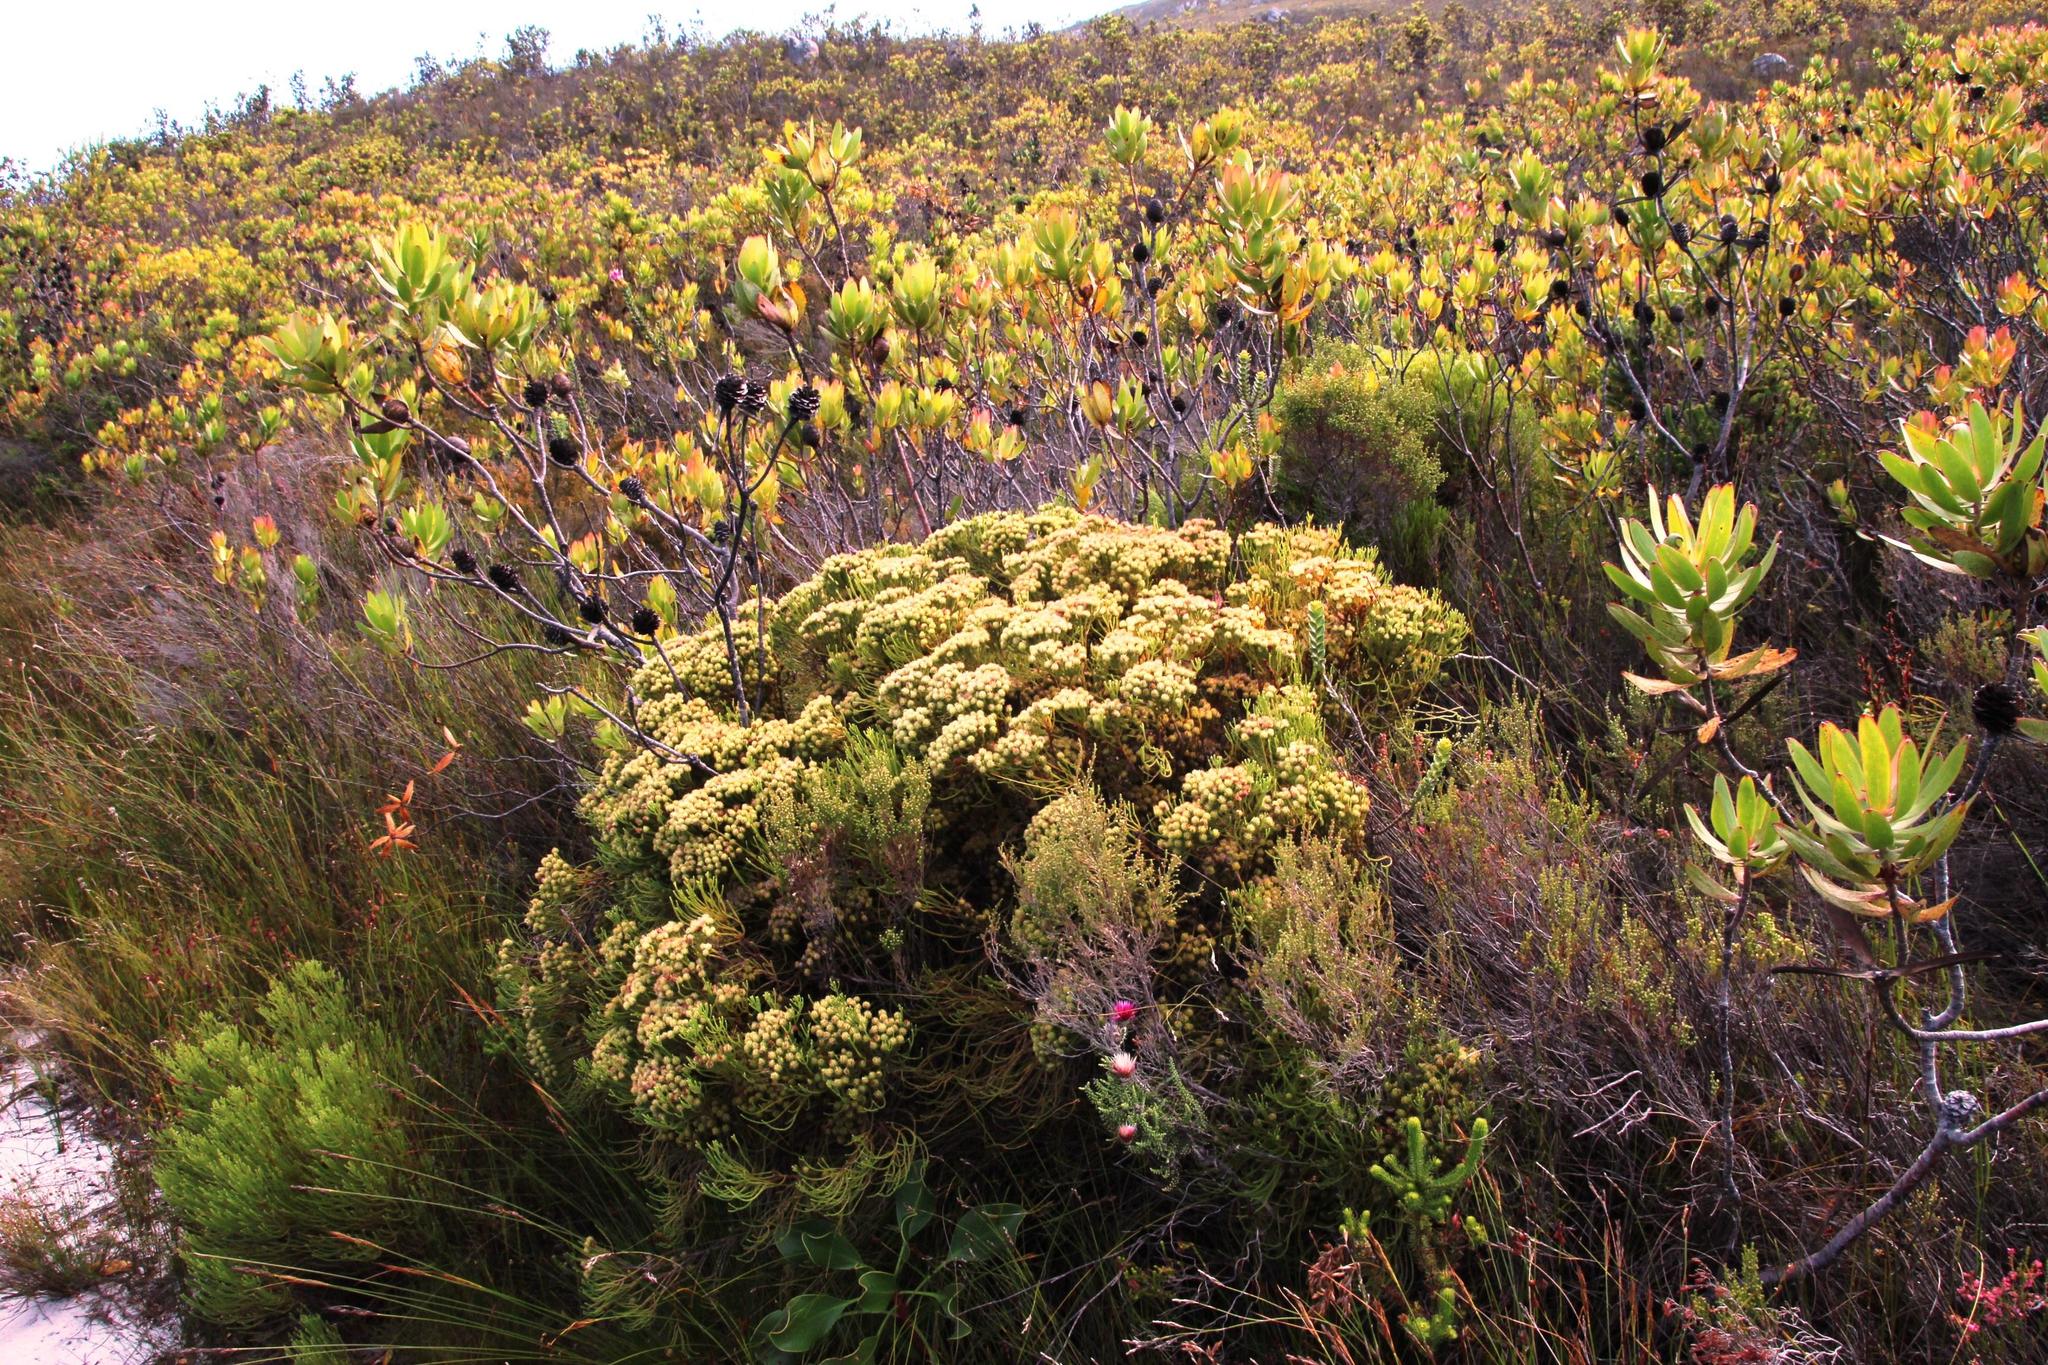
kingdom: Plantae
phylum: Tracheophyta
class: Magnoliopsida
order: Bruniales
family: Bruniaceae
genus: Brunia
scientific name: Brunia paleacea
